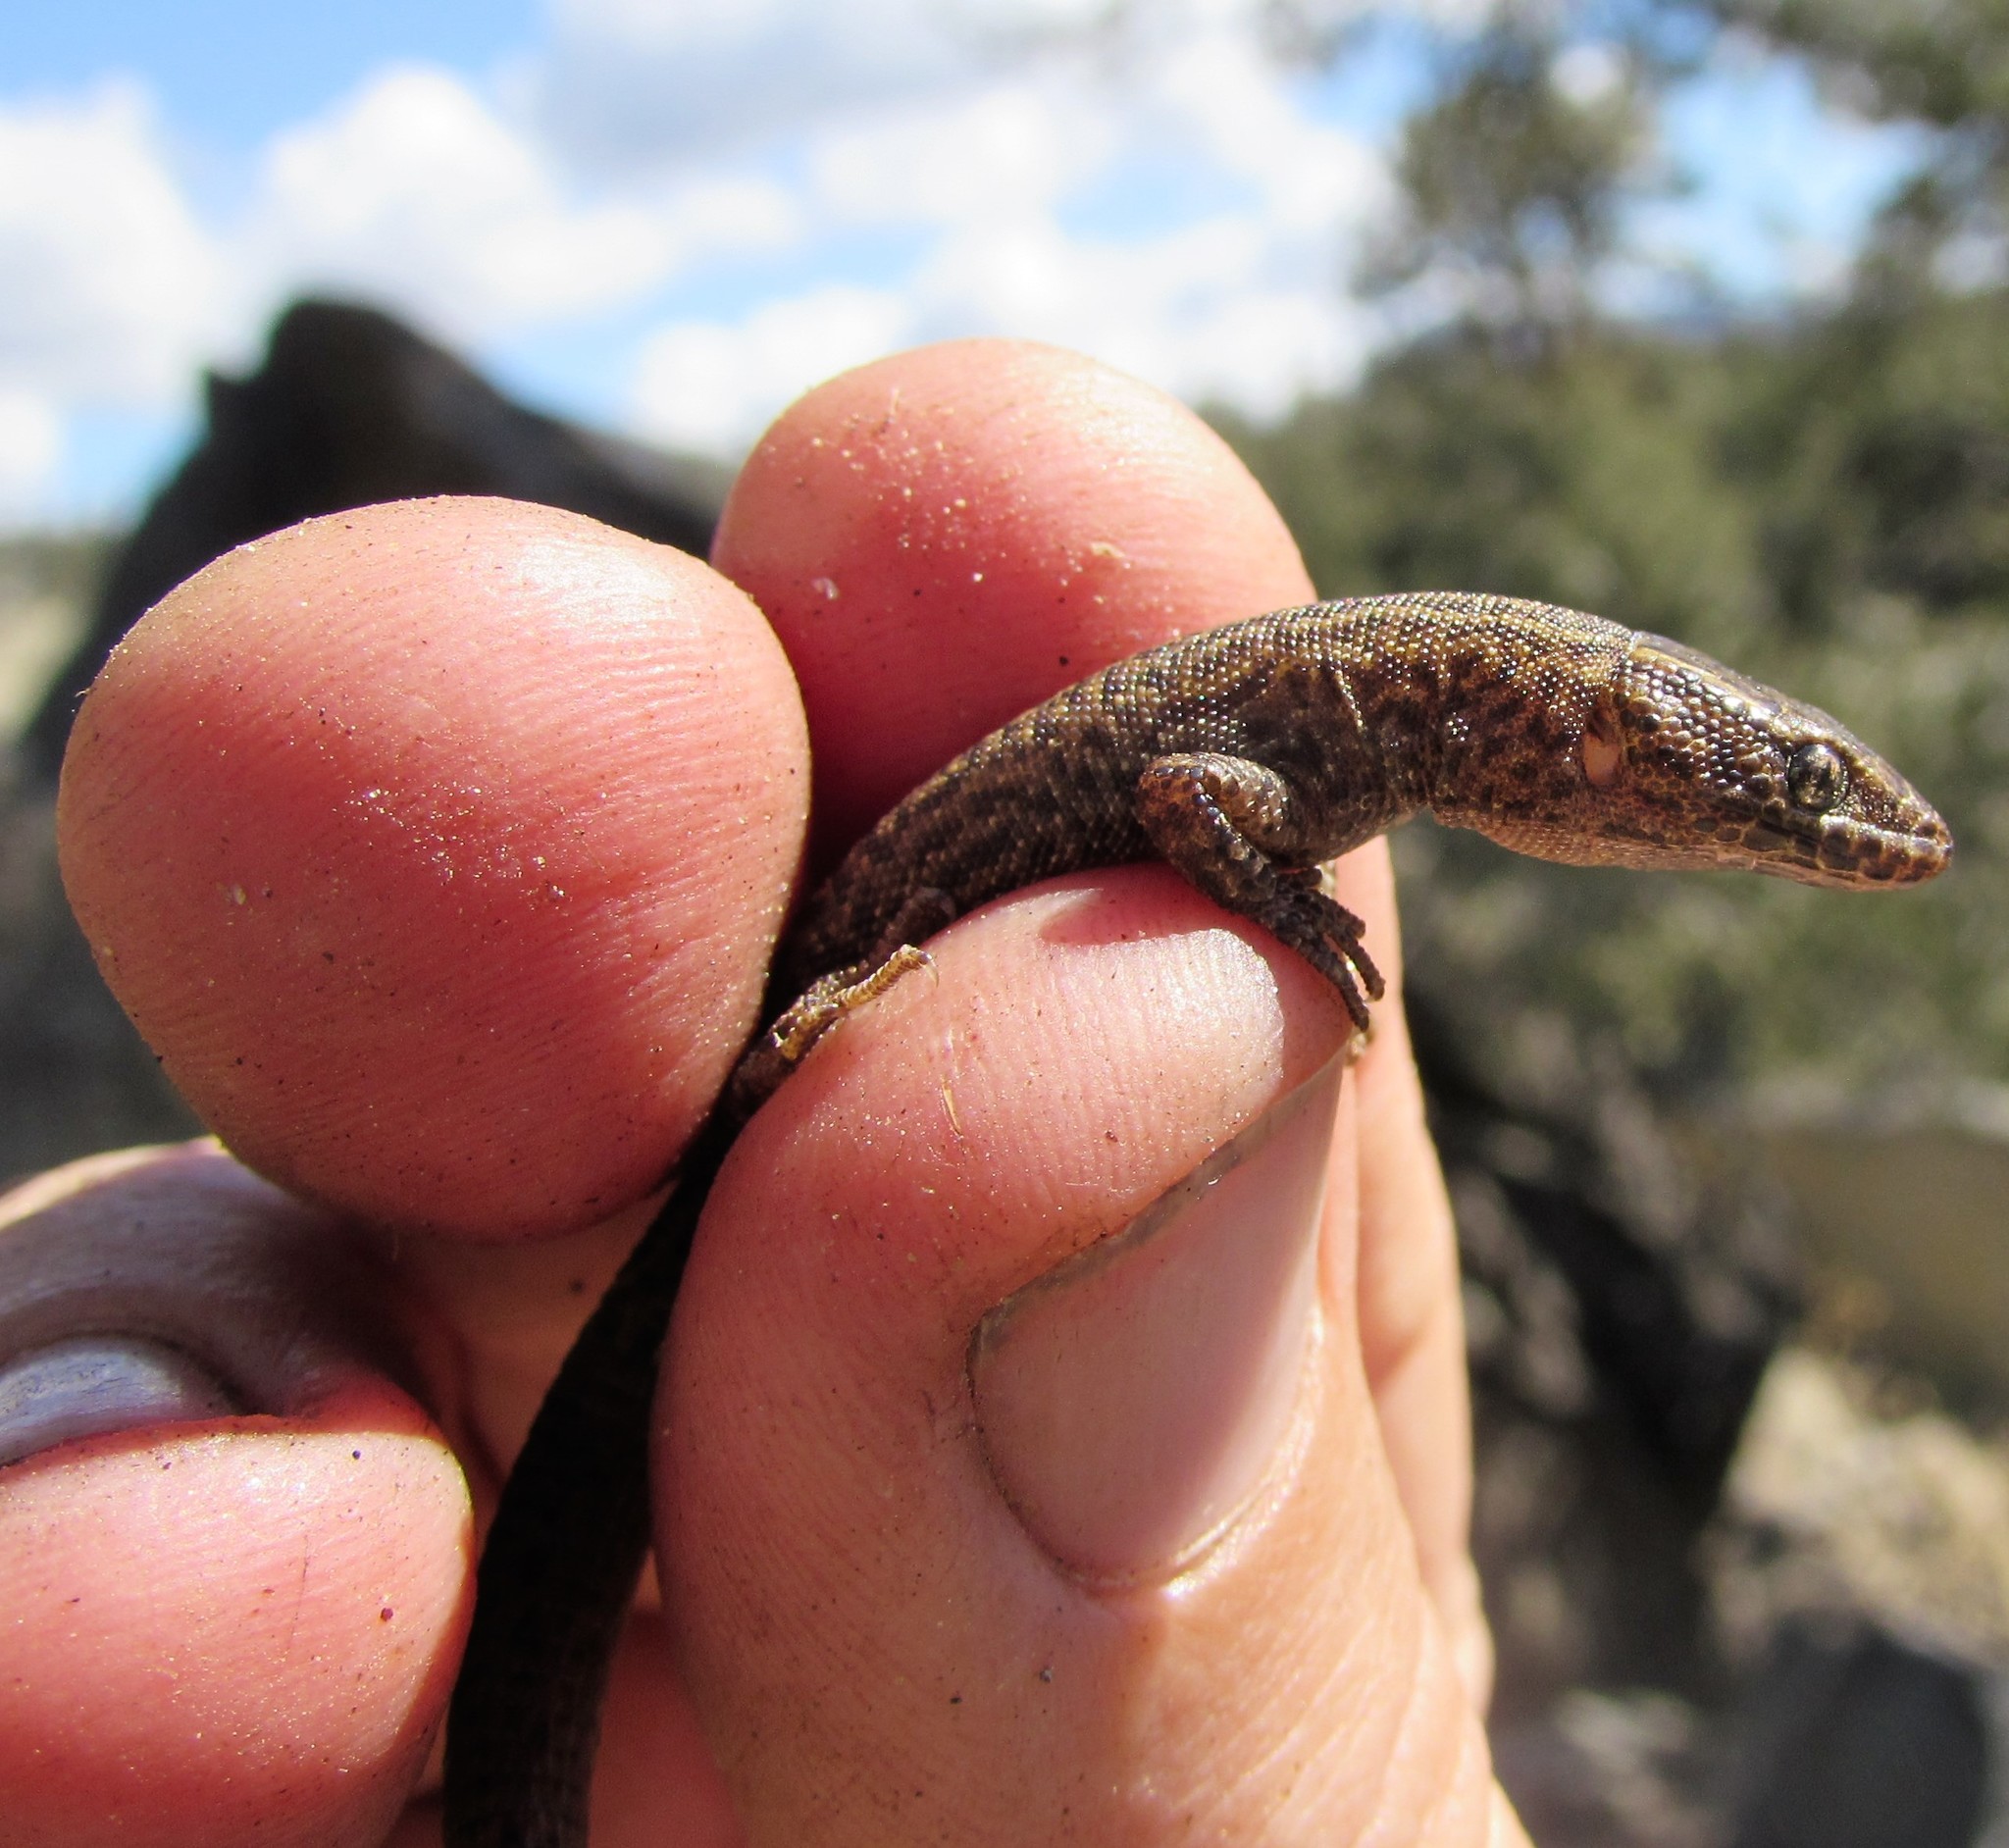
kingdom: Animalia
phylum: Chordata
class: Squamata
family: Xantusiidae
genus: Xantusia
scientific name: Xantusia vigilis
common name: Desert night lizard
